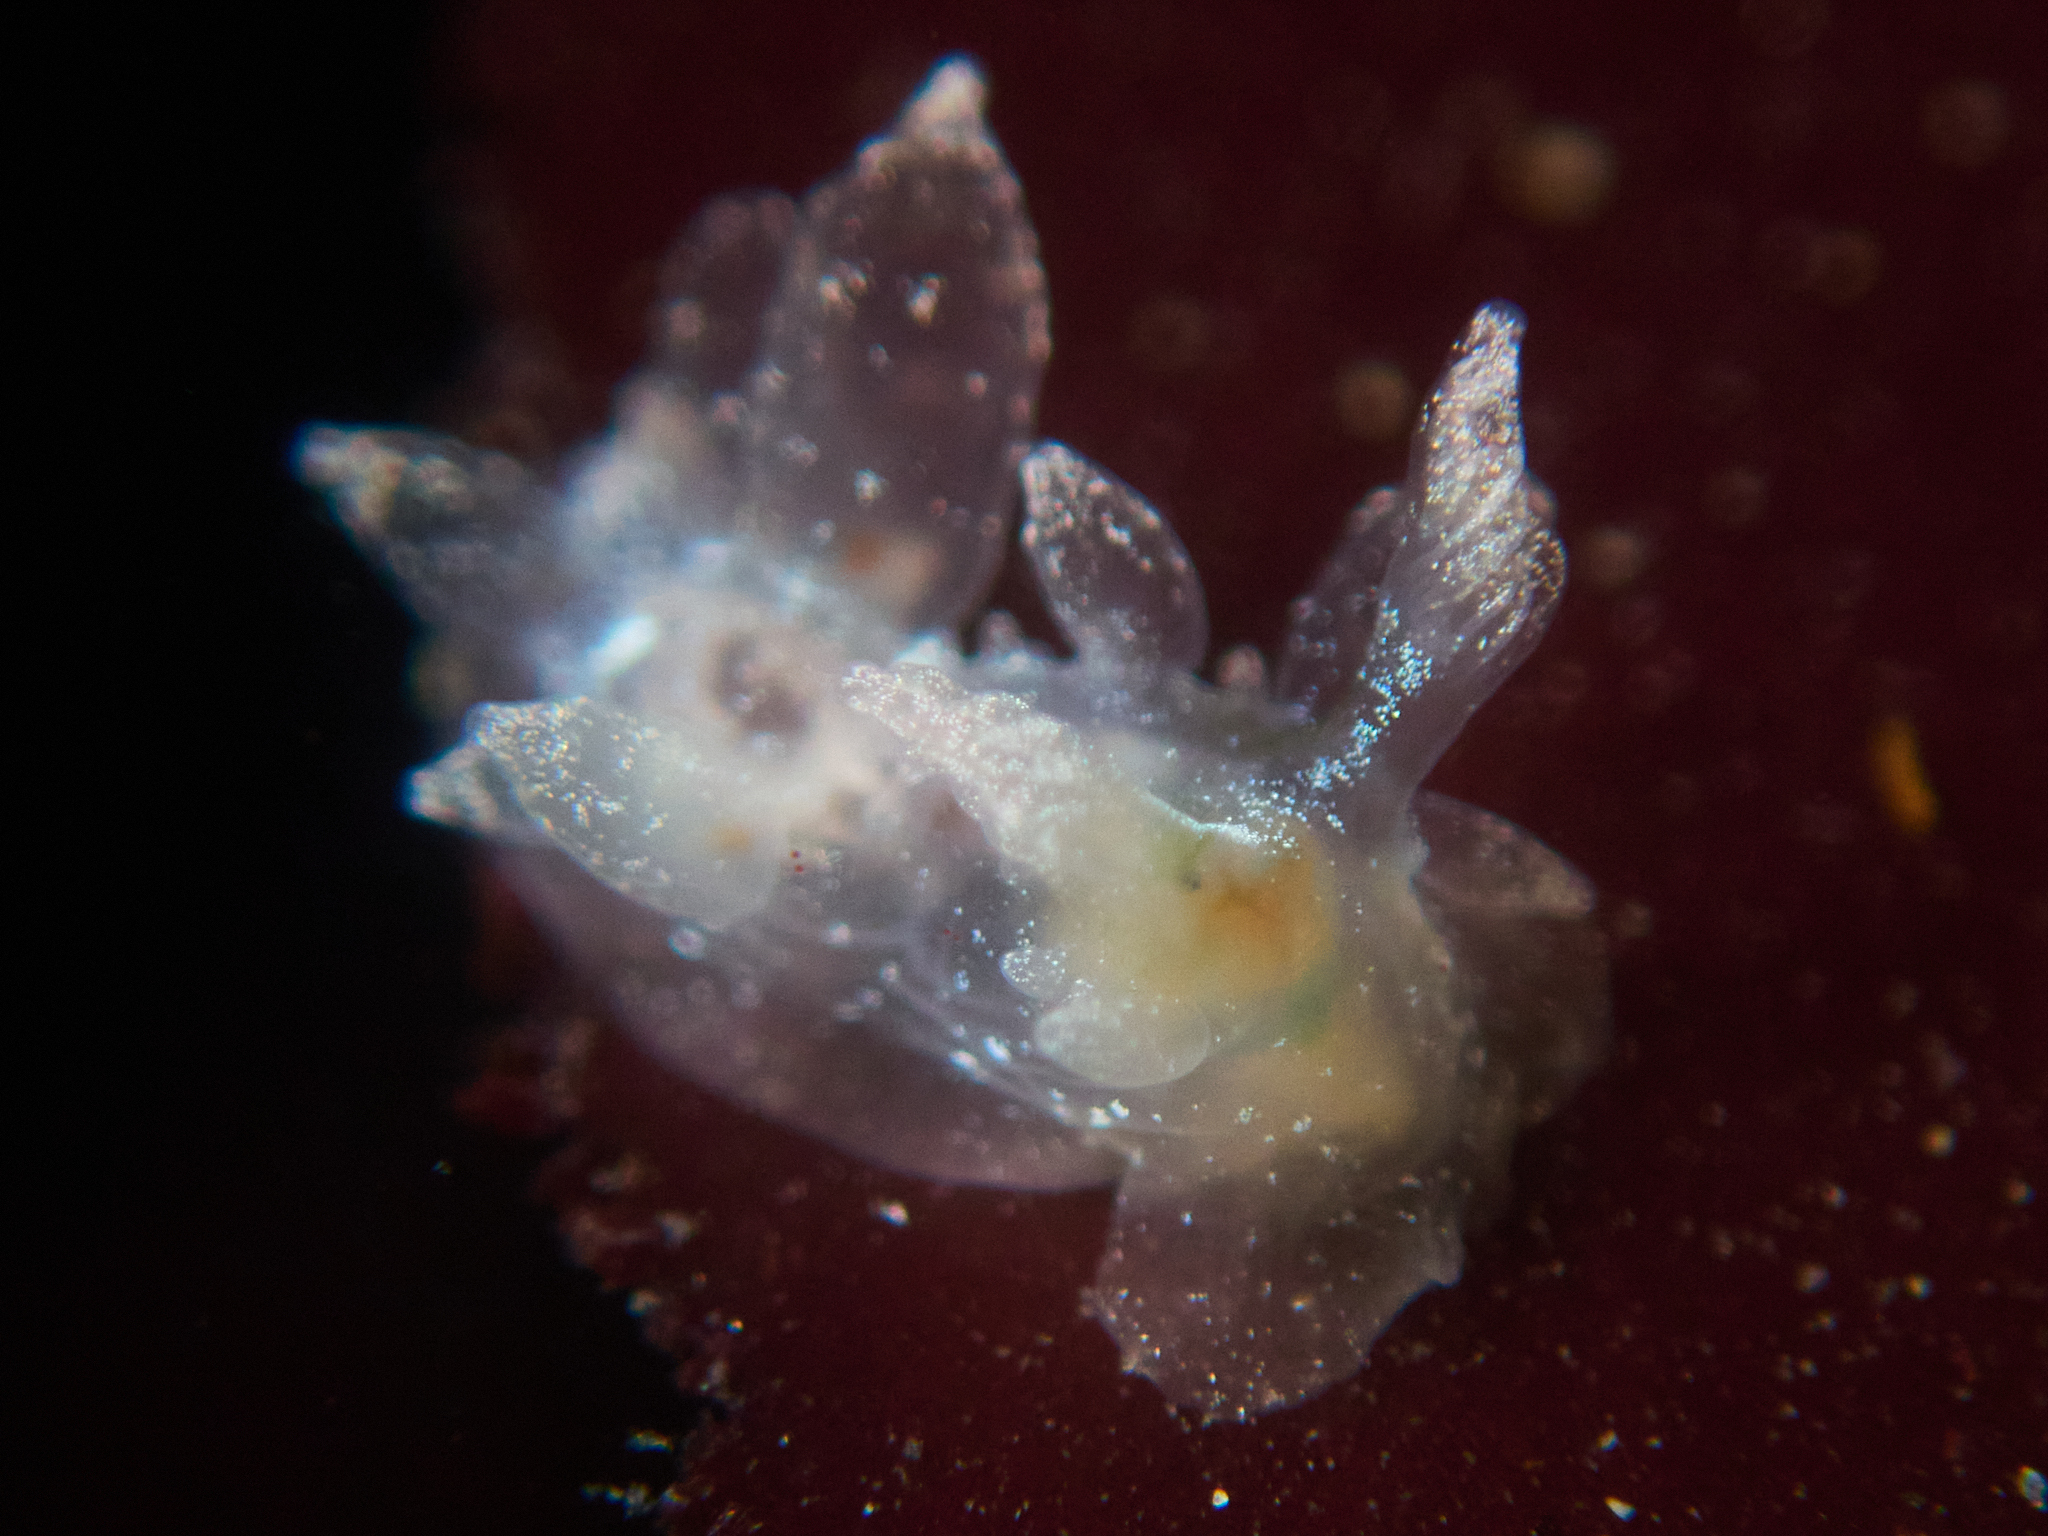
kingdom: Animalia
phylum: Mollusca
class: Gastropoda
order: Nudibranchia
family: Dironidae
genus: Dirona
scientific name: Dirona picta
